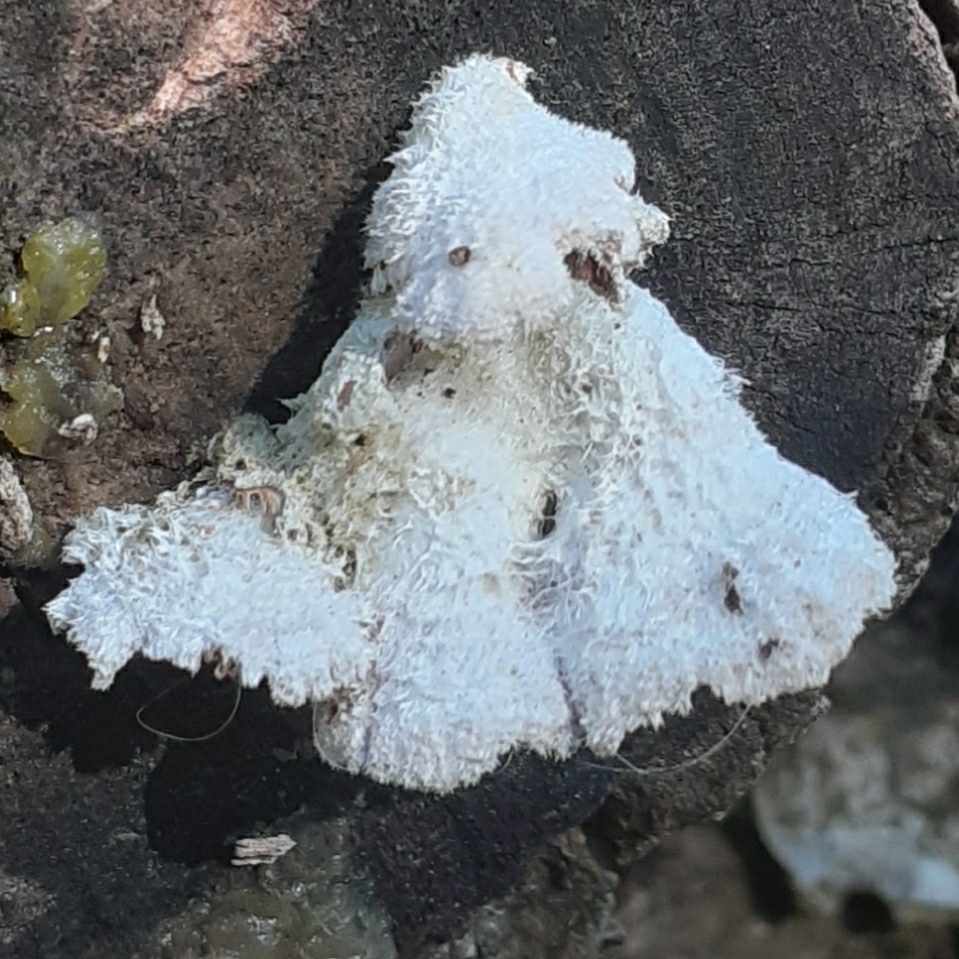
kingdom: Fungi
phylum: Basidiomycota
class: Agaricomycetes
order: Agaricales
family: Schizophyllaceae
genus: Schizophyllum
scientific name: Schizophyllum commune
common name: Common porecrust
